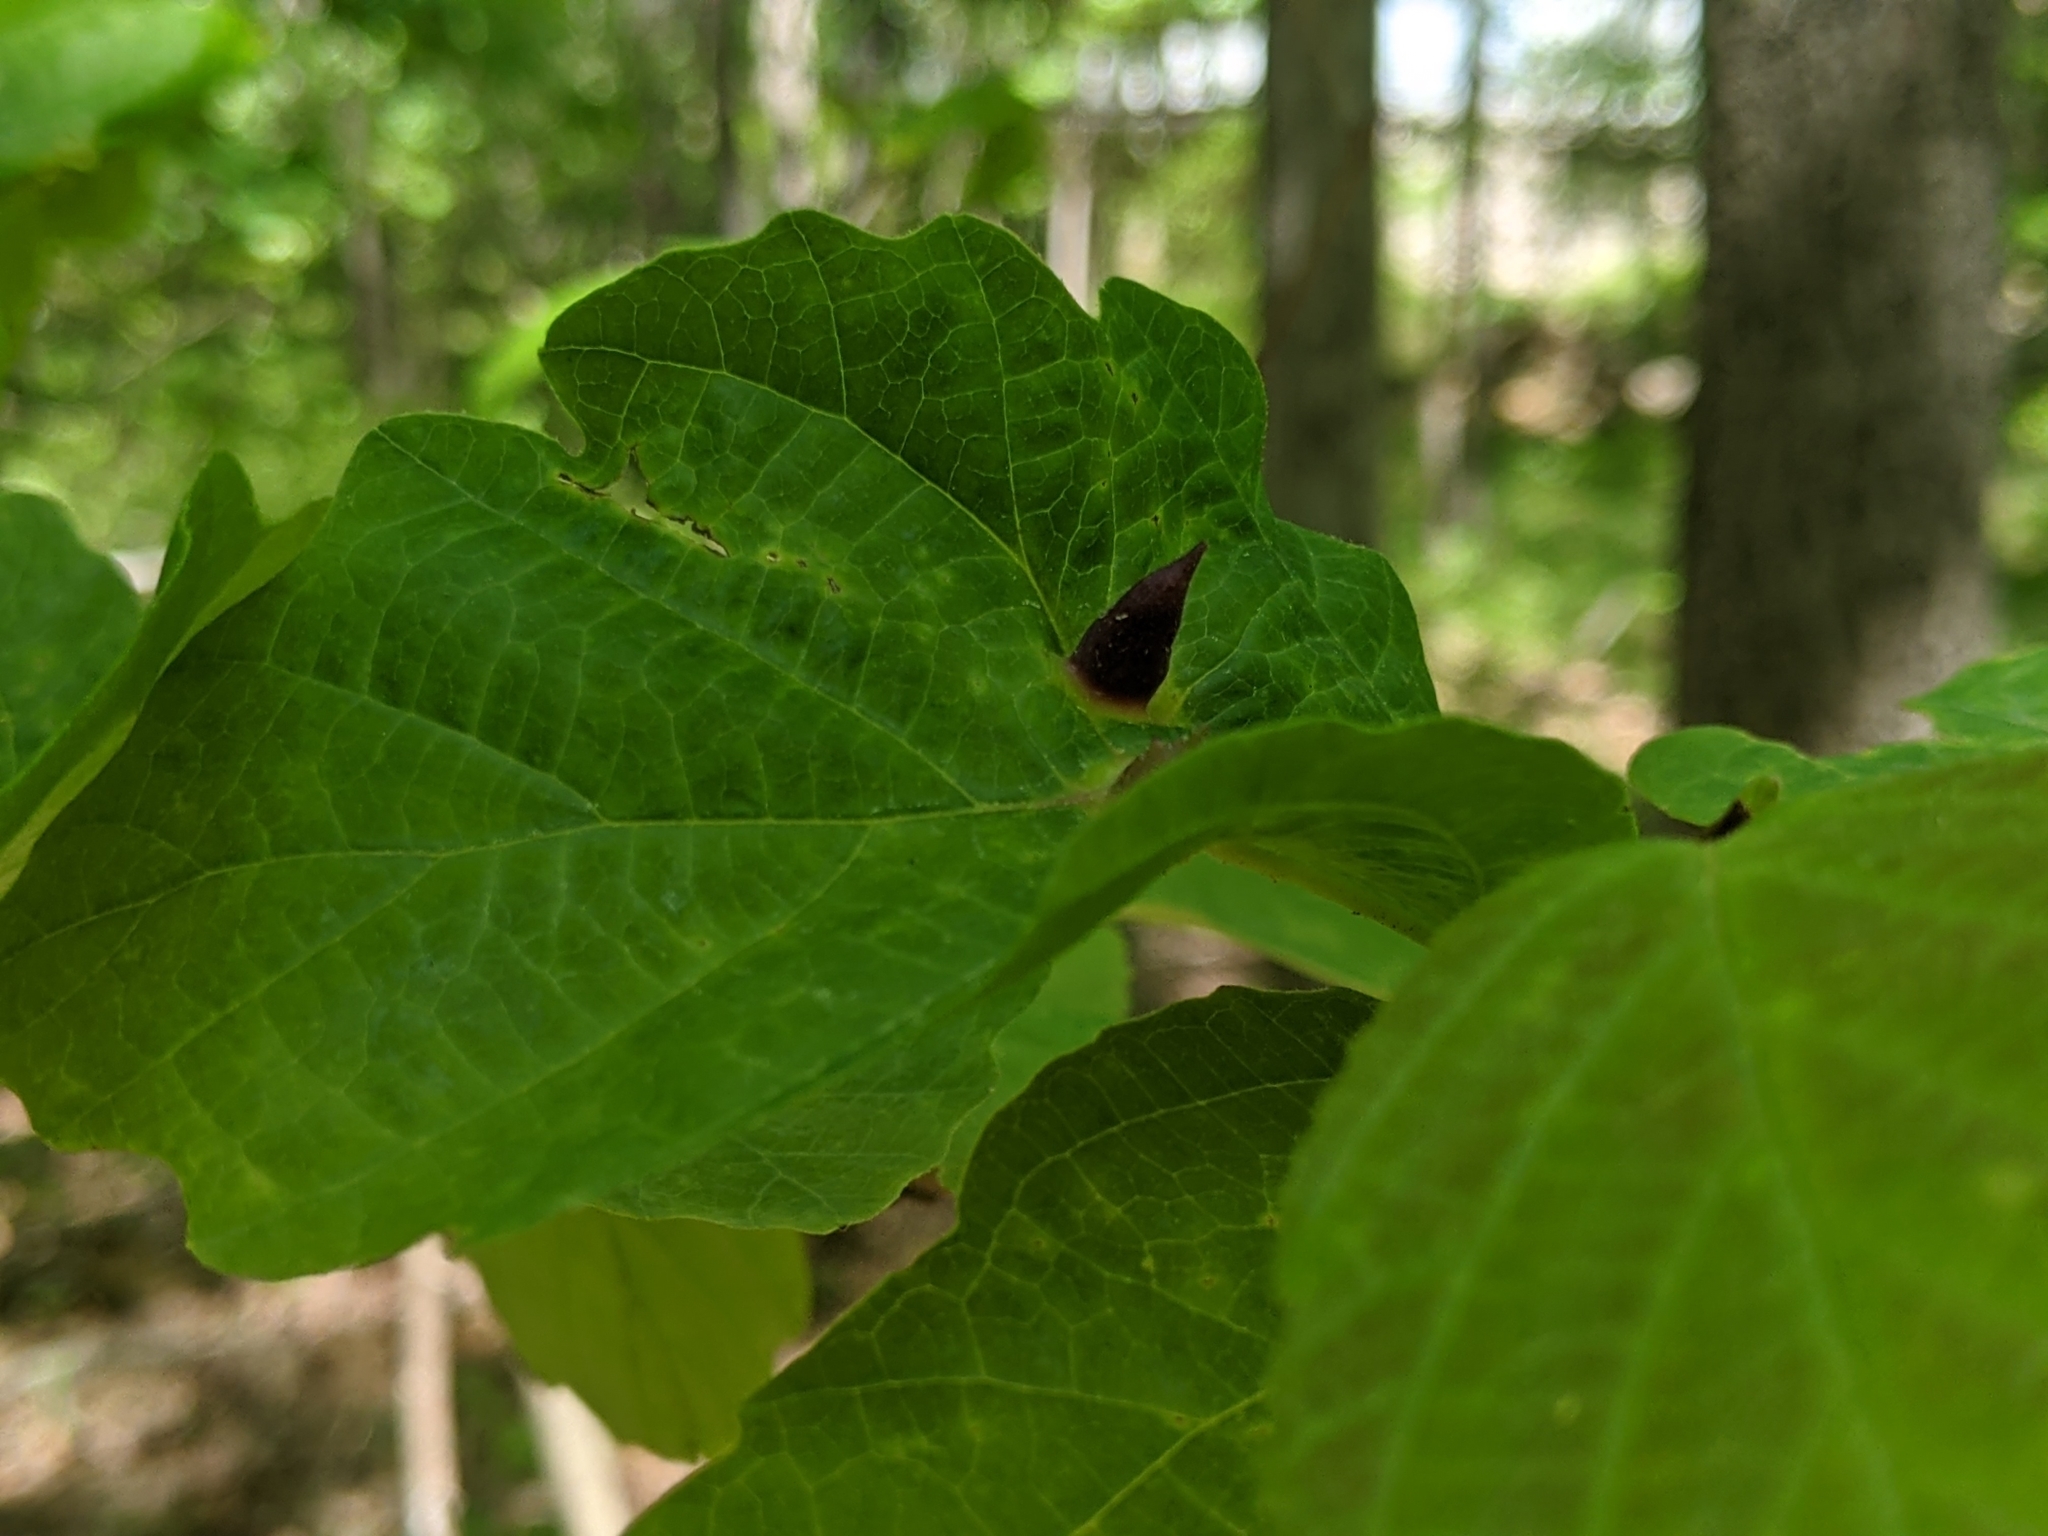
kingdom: Animalia
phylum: Arthropoda
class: Insecta
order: Hemiptera
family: Aphididae
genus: Hormaphis
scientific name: Hormaphis hamamelidis
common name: Witch-hazel cone gall aphid
